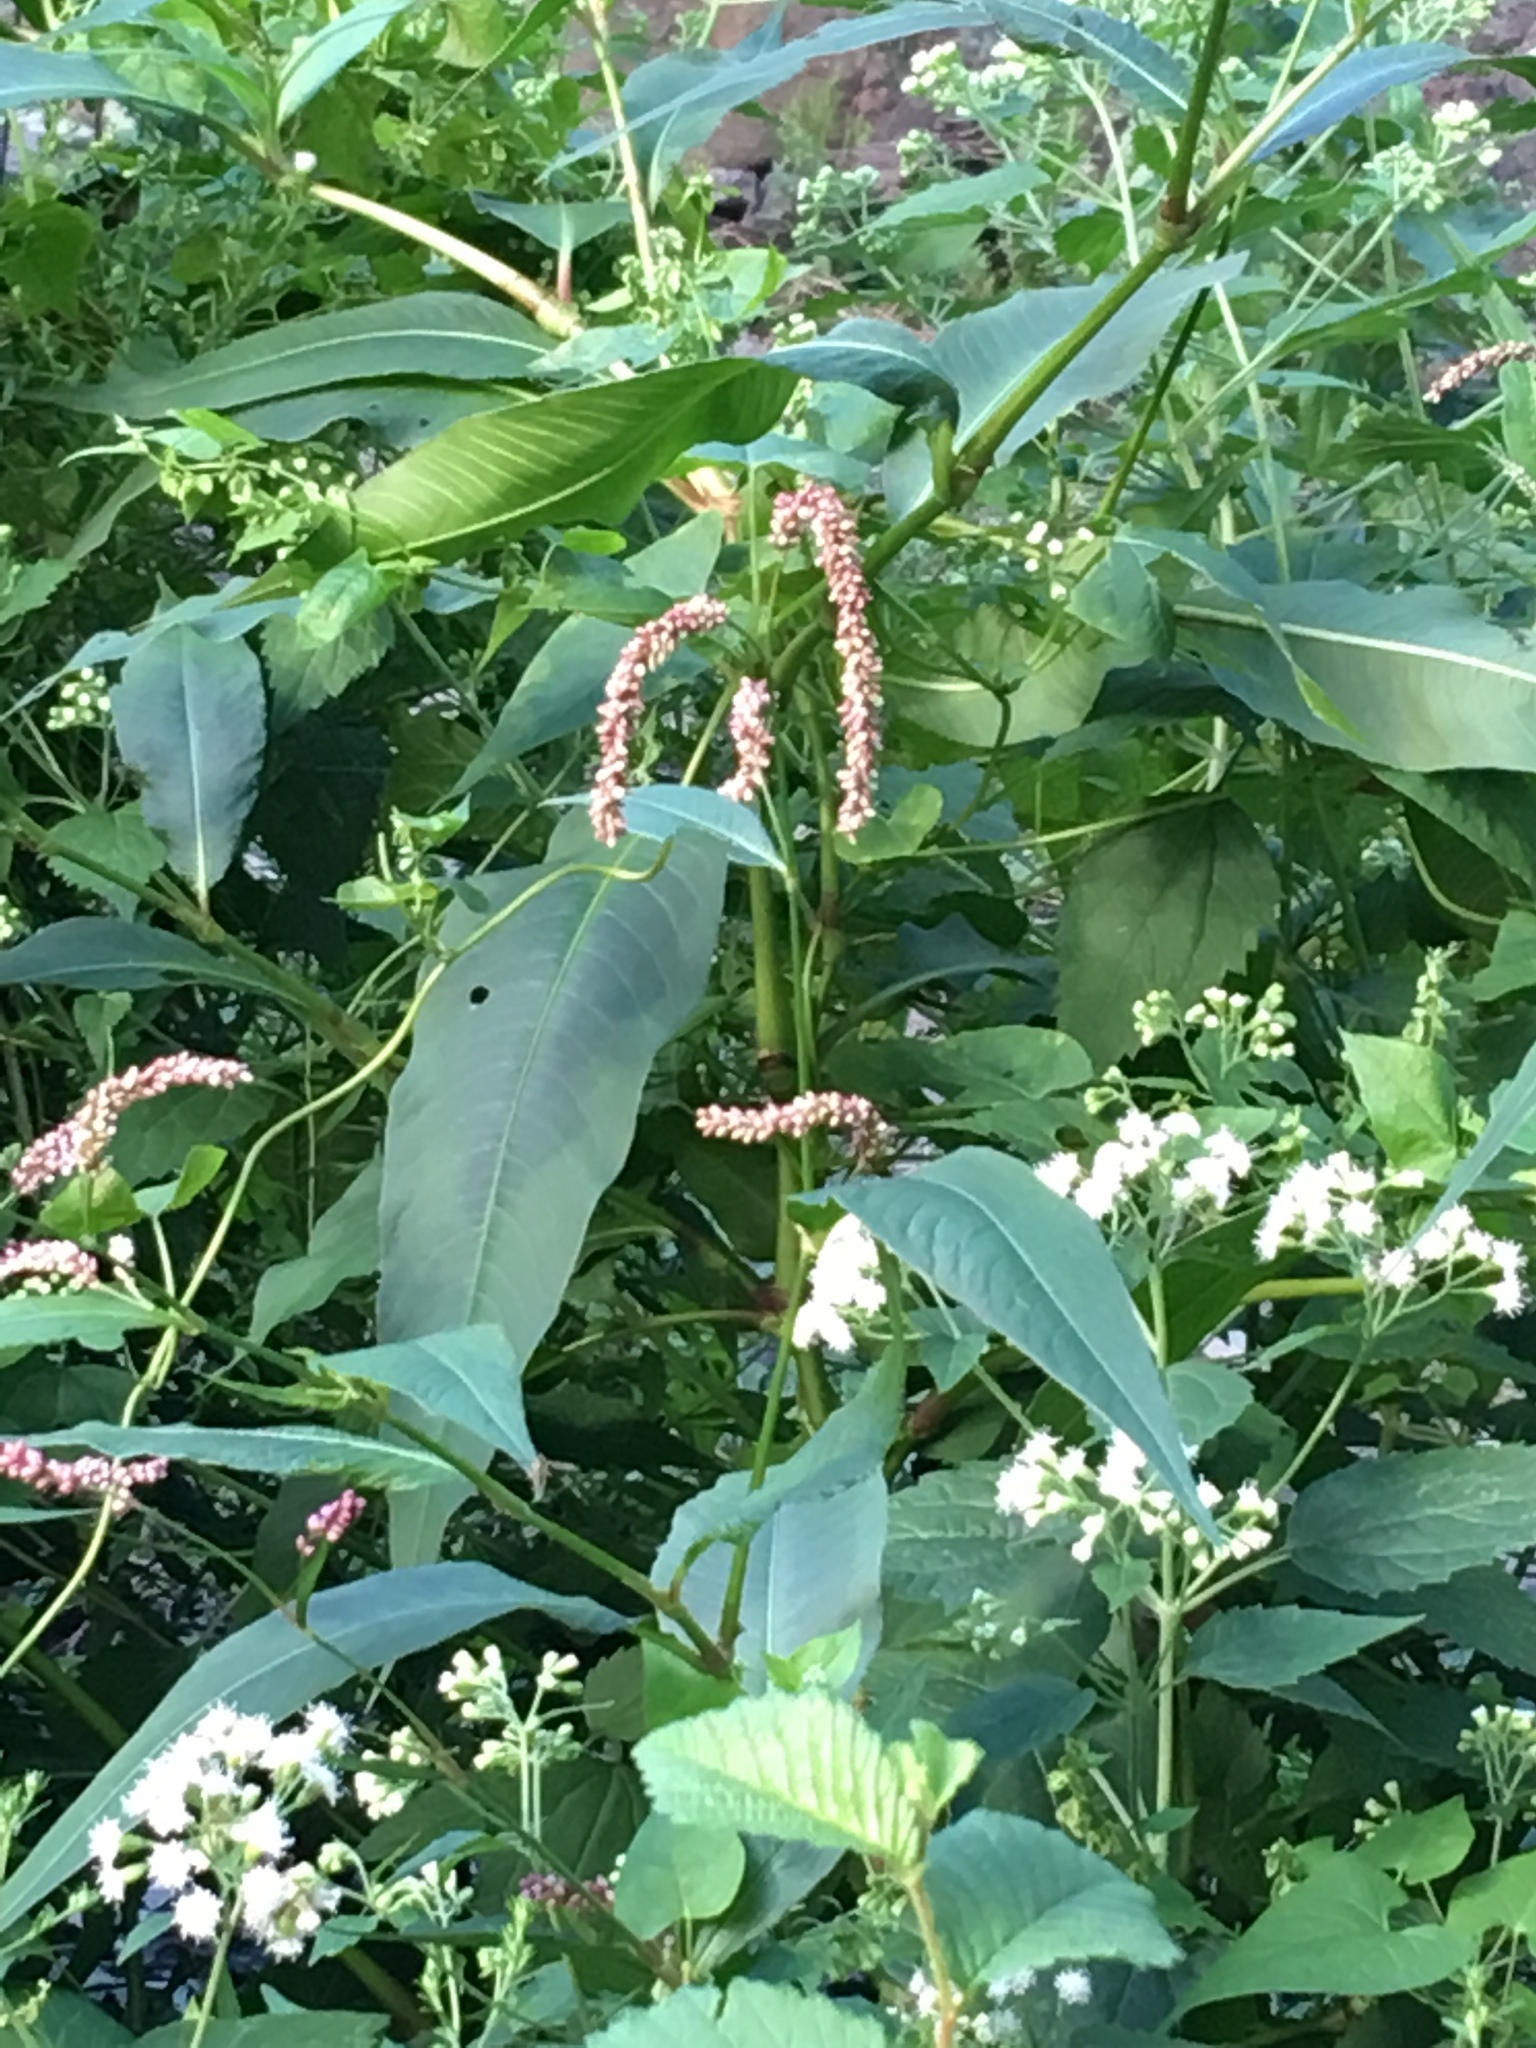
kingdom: Plantae
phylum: Tracheophyta
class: Magnoliopsida
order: Caryophyllales
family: Polygonaceae
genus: Persicaria
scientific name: Persicaria extremiorientalis
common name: Far-eastern smartweed
